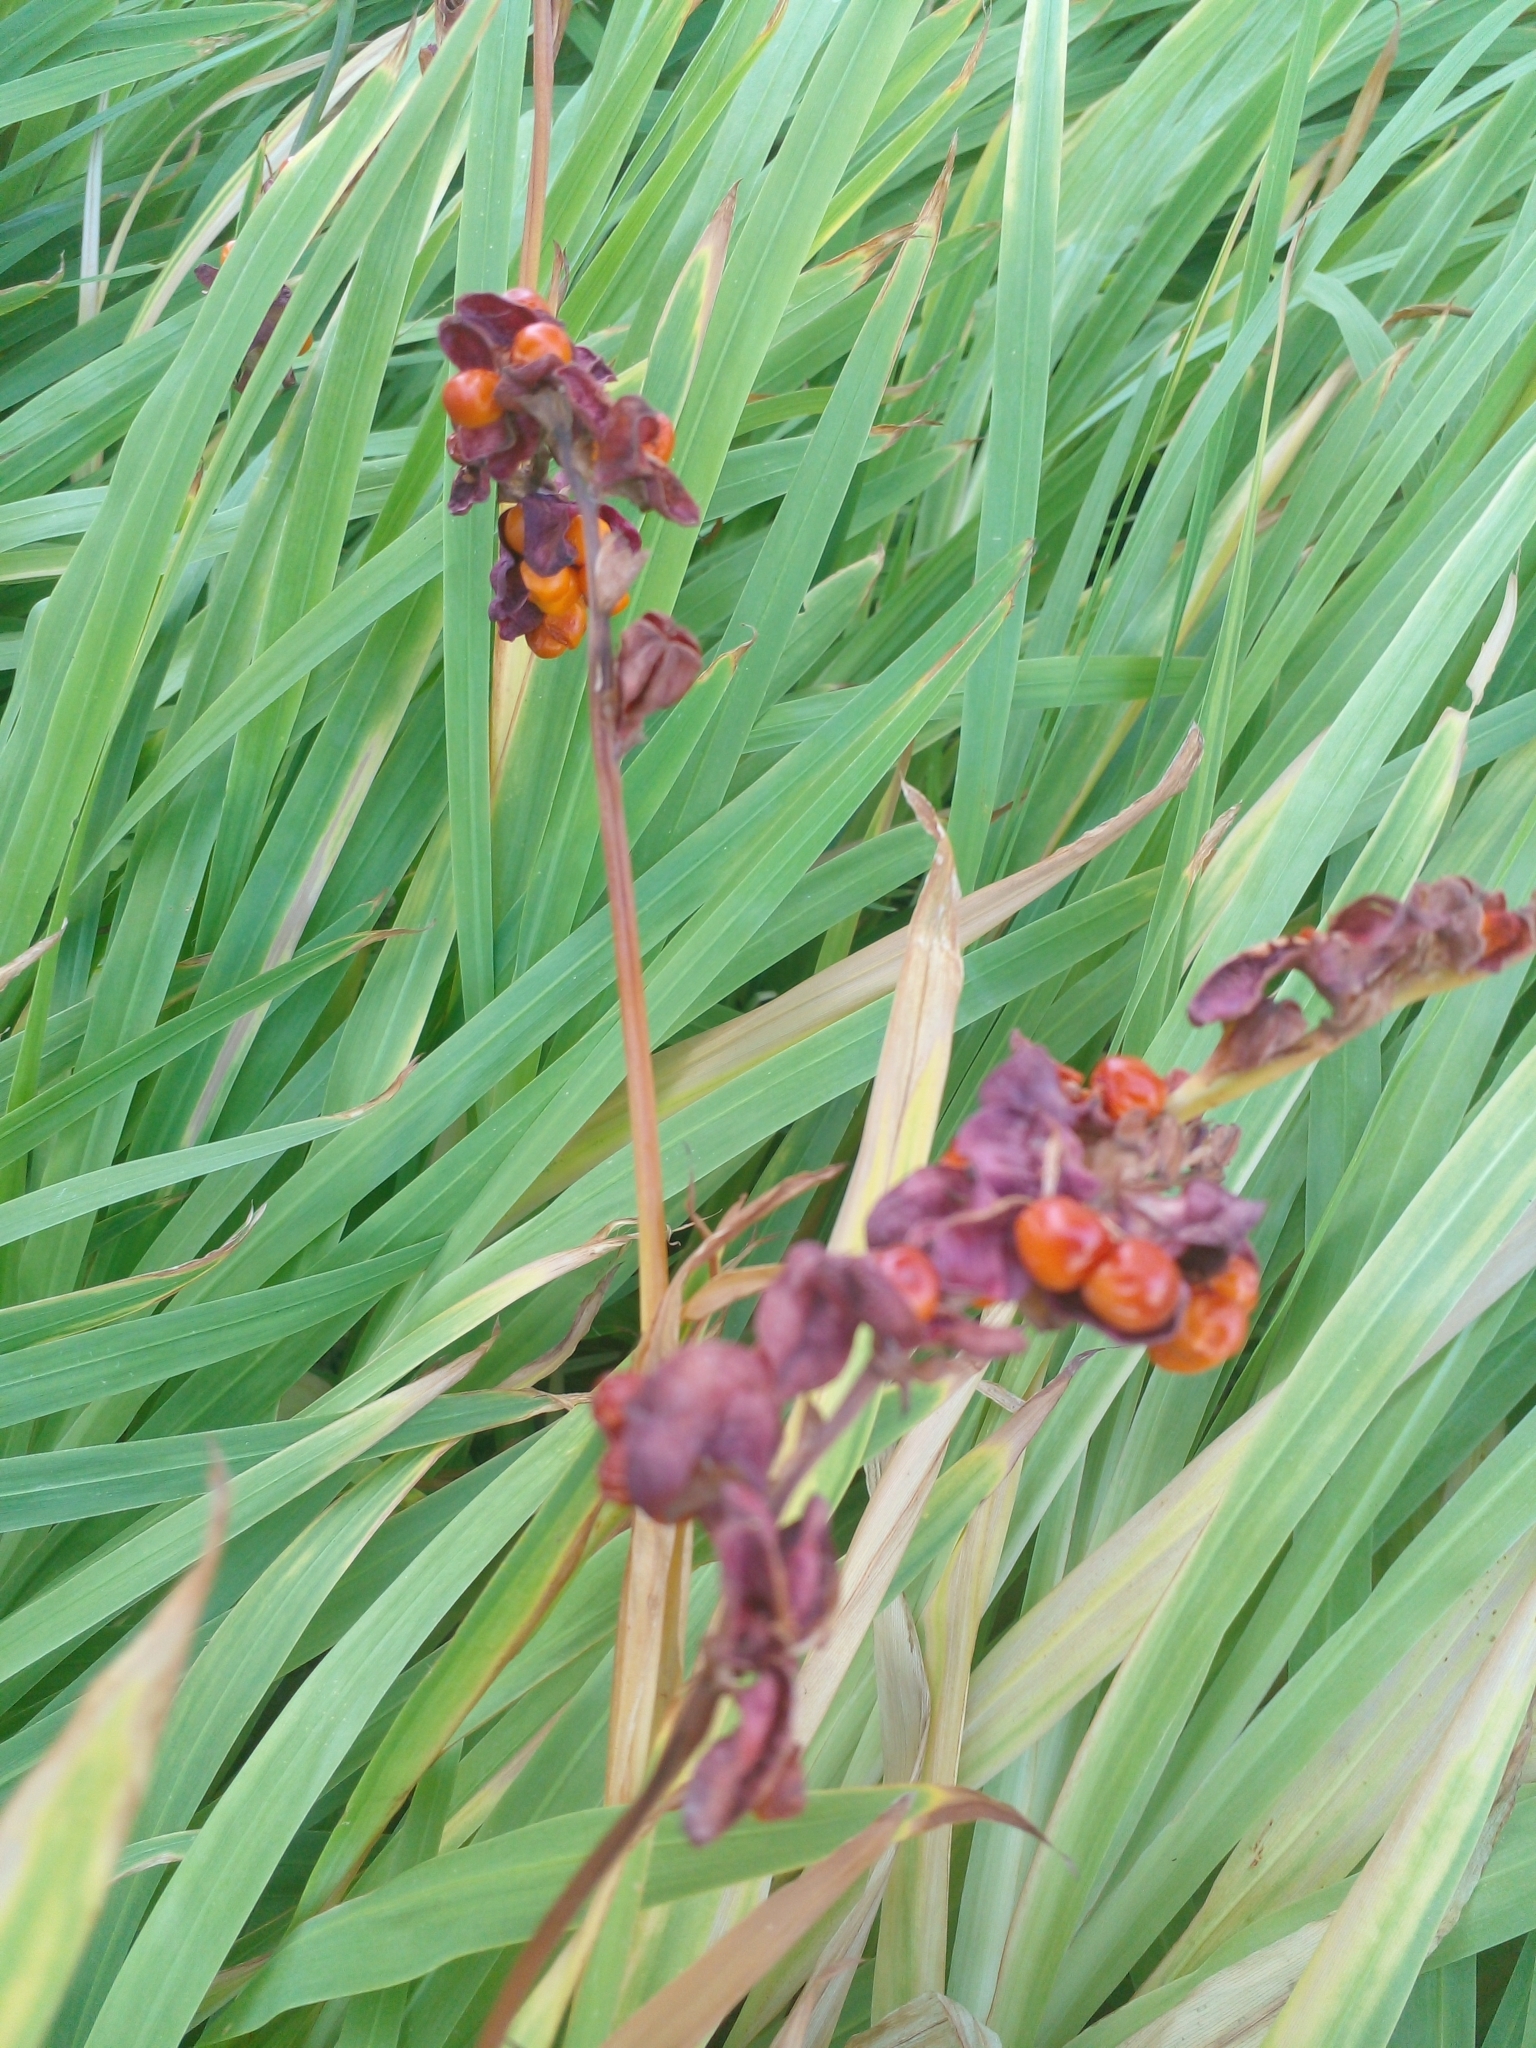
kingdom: Plantae
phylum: Tracheophyta
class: Liliopsida
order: Asparagales
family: Iridaceae
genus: Chasmanthe
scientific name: Chasmanthe aethiopica
